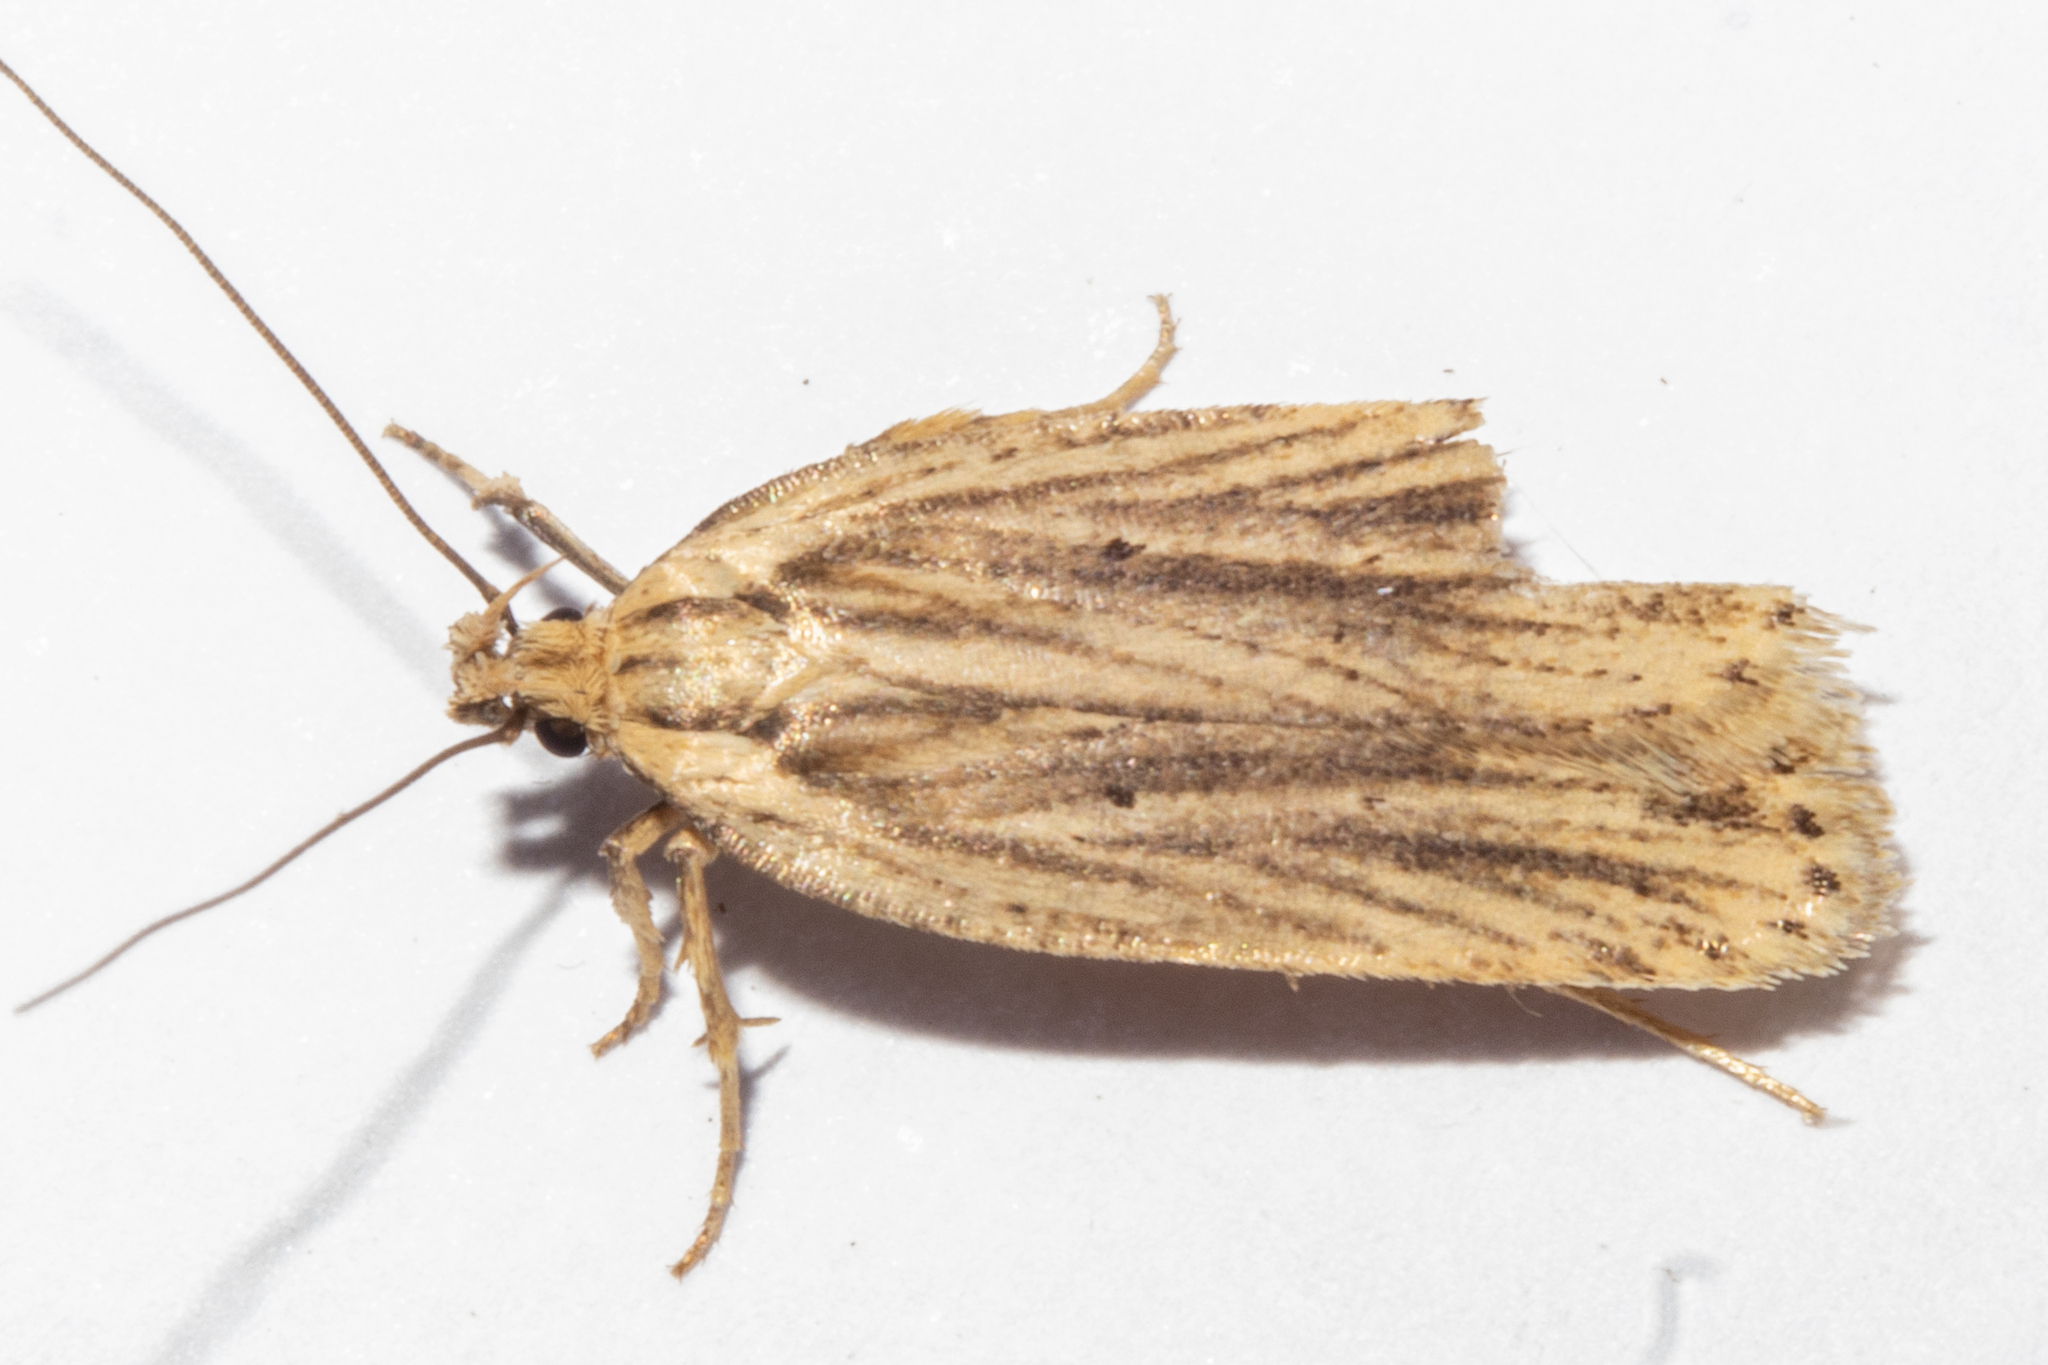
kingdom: Animalia
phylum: Arthropoda
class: Insecta
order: Lepidoptera
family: Depressariidae
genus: Agonopterix
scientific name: Agonopterix
